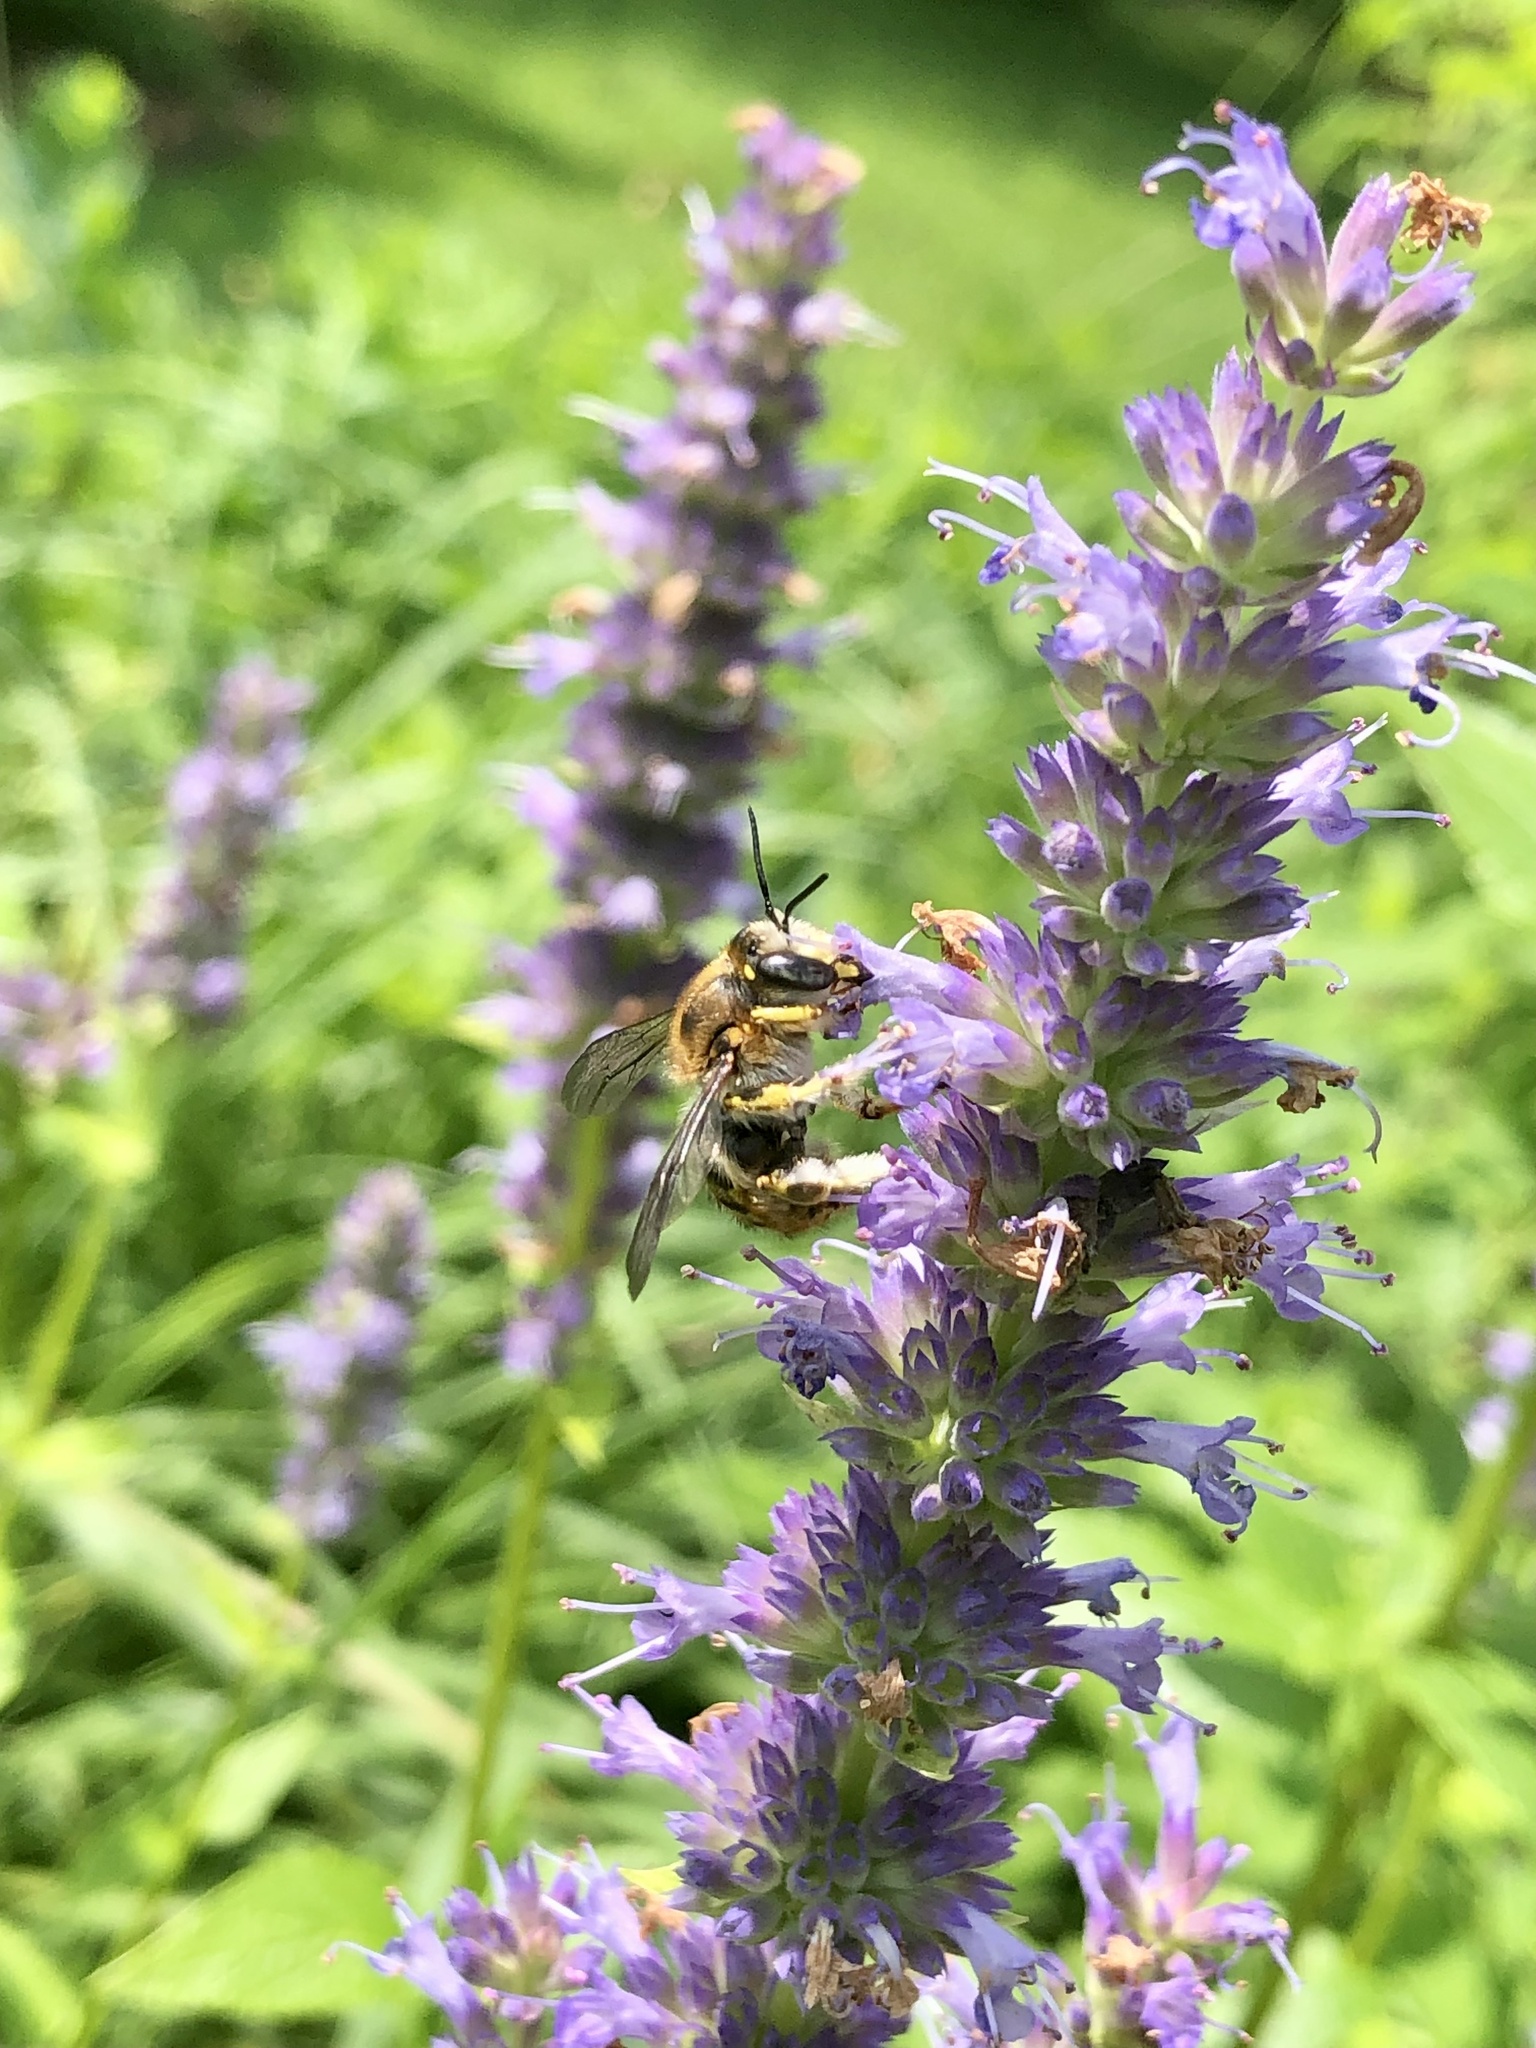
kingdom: Animalia
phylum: Arthropoda
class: Insecta
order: Hymenoptera
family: Megachilidae
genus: Anthidium
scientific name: Anthidium manicatum
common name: Wool carder bee
